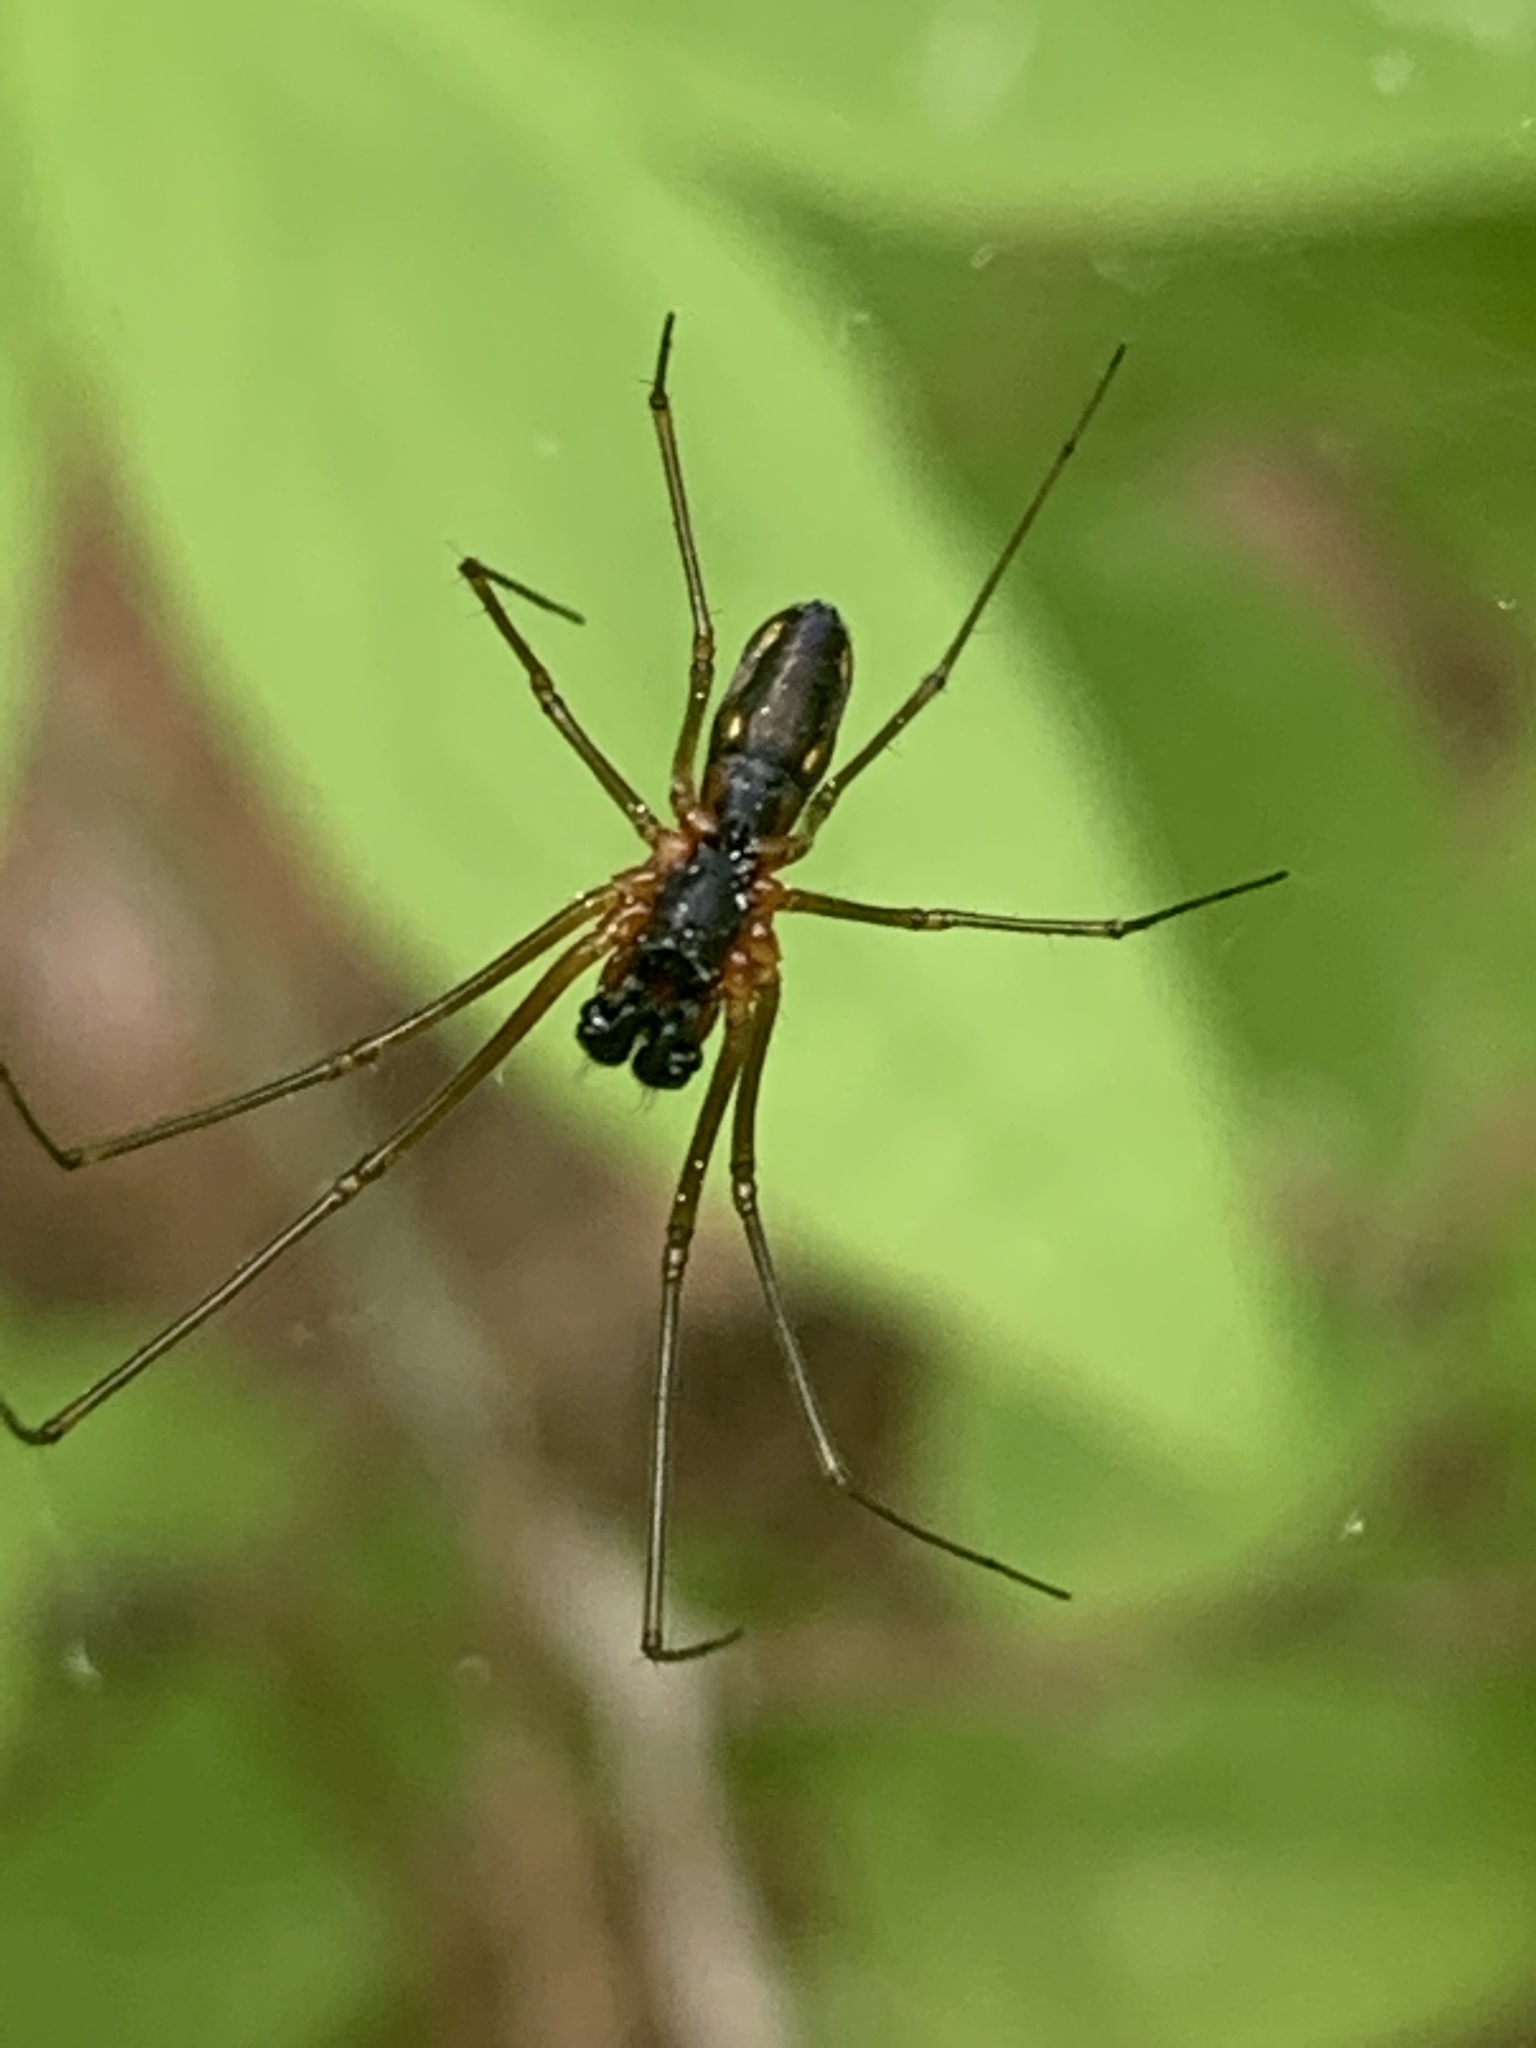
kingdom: Animalia
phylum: Arthropoda
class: Arachnida
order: Araneae
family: Linyphiidae
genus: Neriene
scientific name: Neriene radiata
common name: Filmy dome spider
